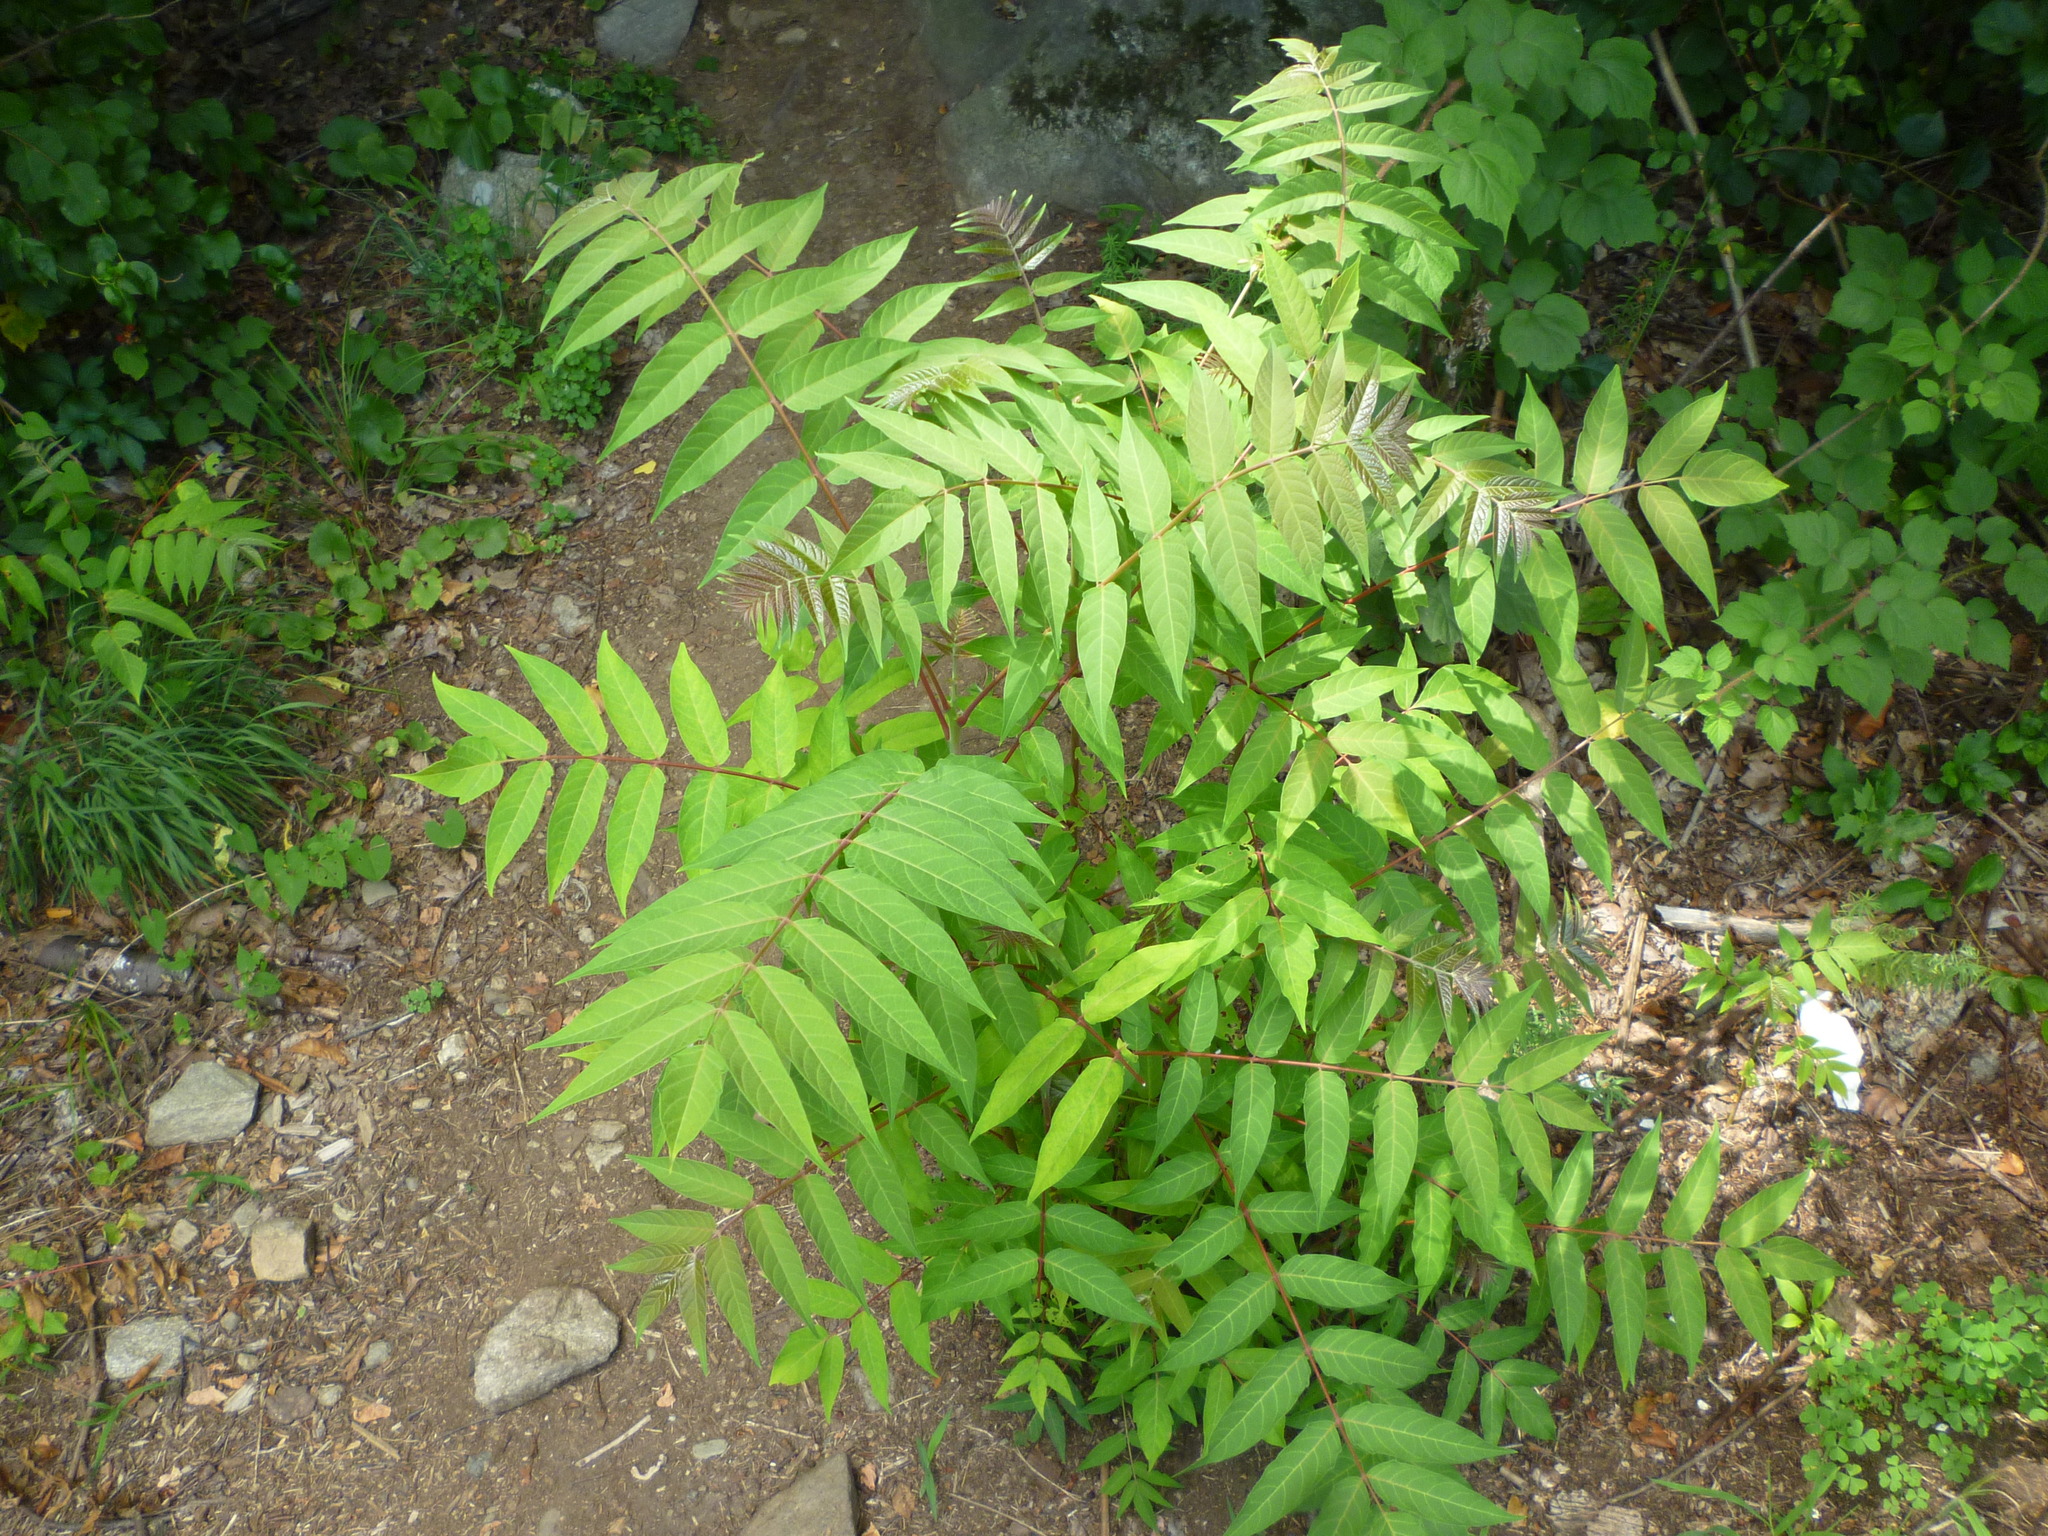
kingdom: Plantae
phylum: Tracheophyta
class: Magnoliopsida
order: Sapindales
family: Simaroubaceae
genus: Ailanthus
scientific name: Ailanthus altissima
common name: Tree-of-heaven
